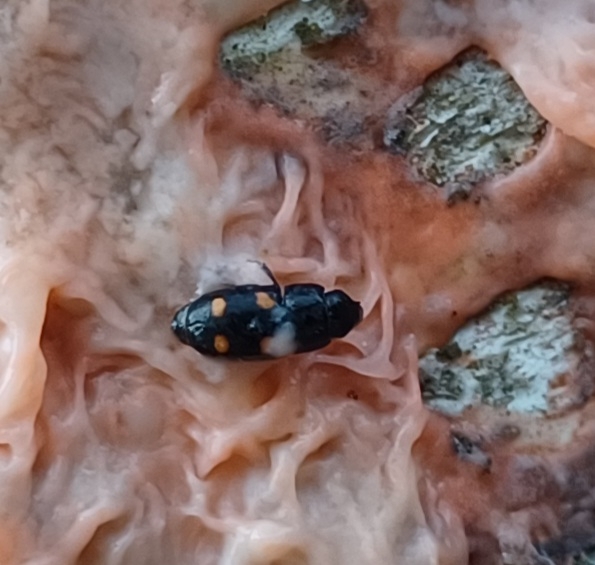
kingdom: Animalia
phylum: Arthropoda
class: Insecta
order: Coleoptera
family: Nitidulidae
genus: Glischrochilus
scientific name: Glischrochilus hortensis
